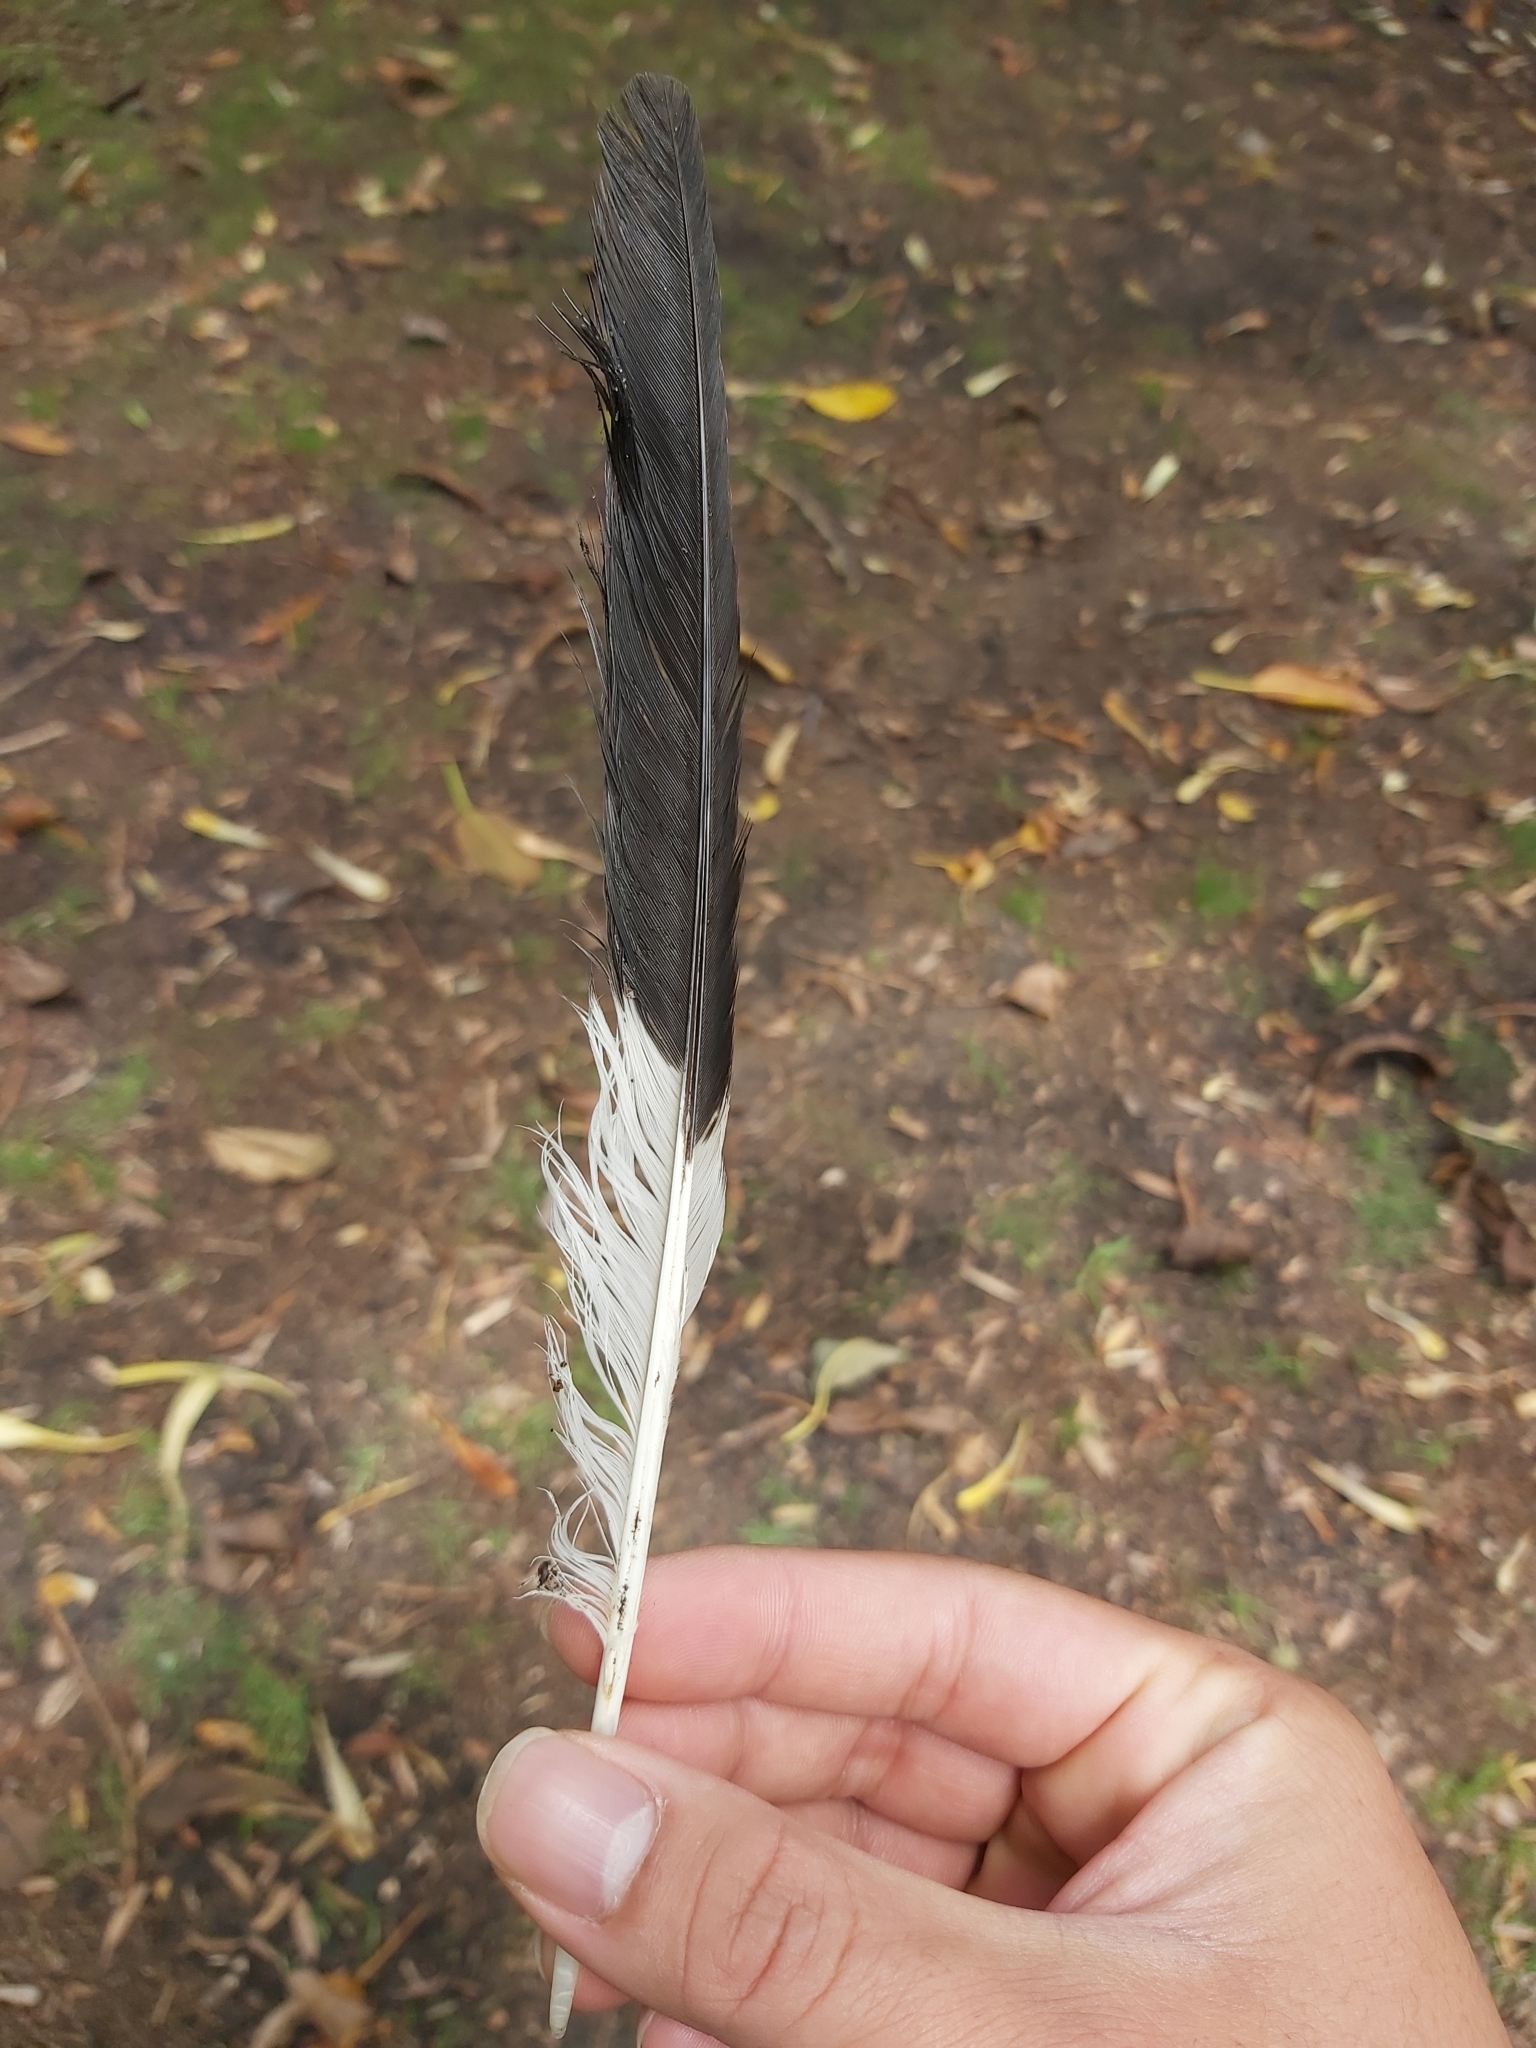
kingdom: Animalia
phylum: Chordata
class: Aves
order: Passeriformes
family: Cracticidae
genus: Strepera
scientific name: Strepera graculina
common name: Pied currawong
